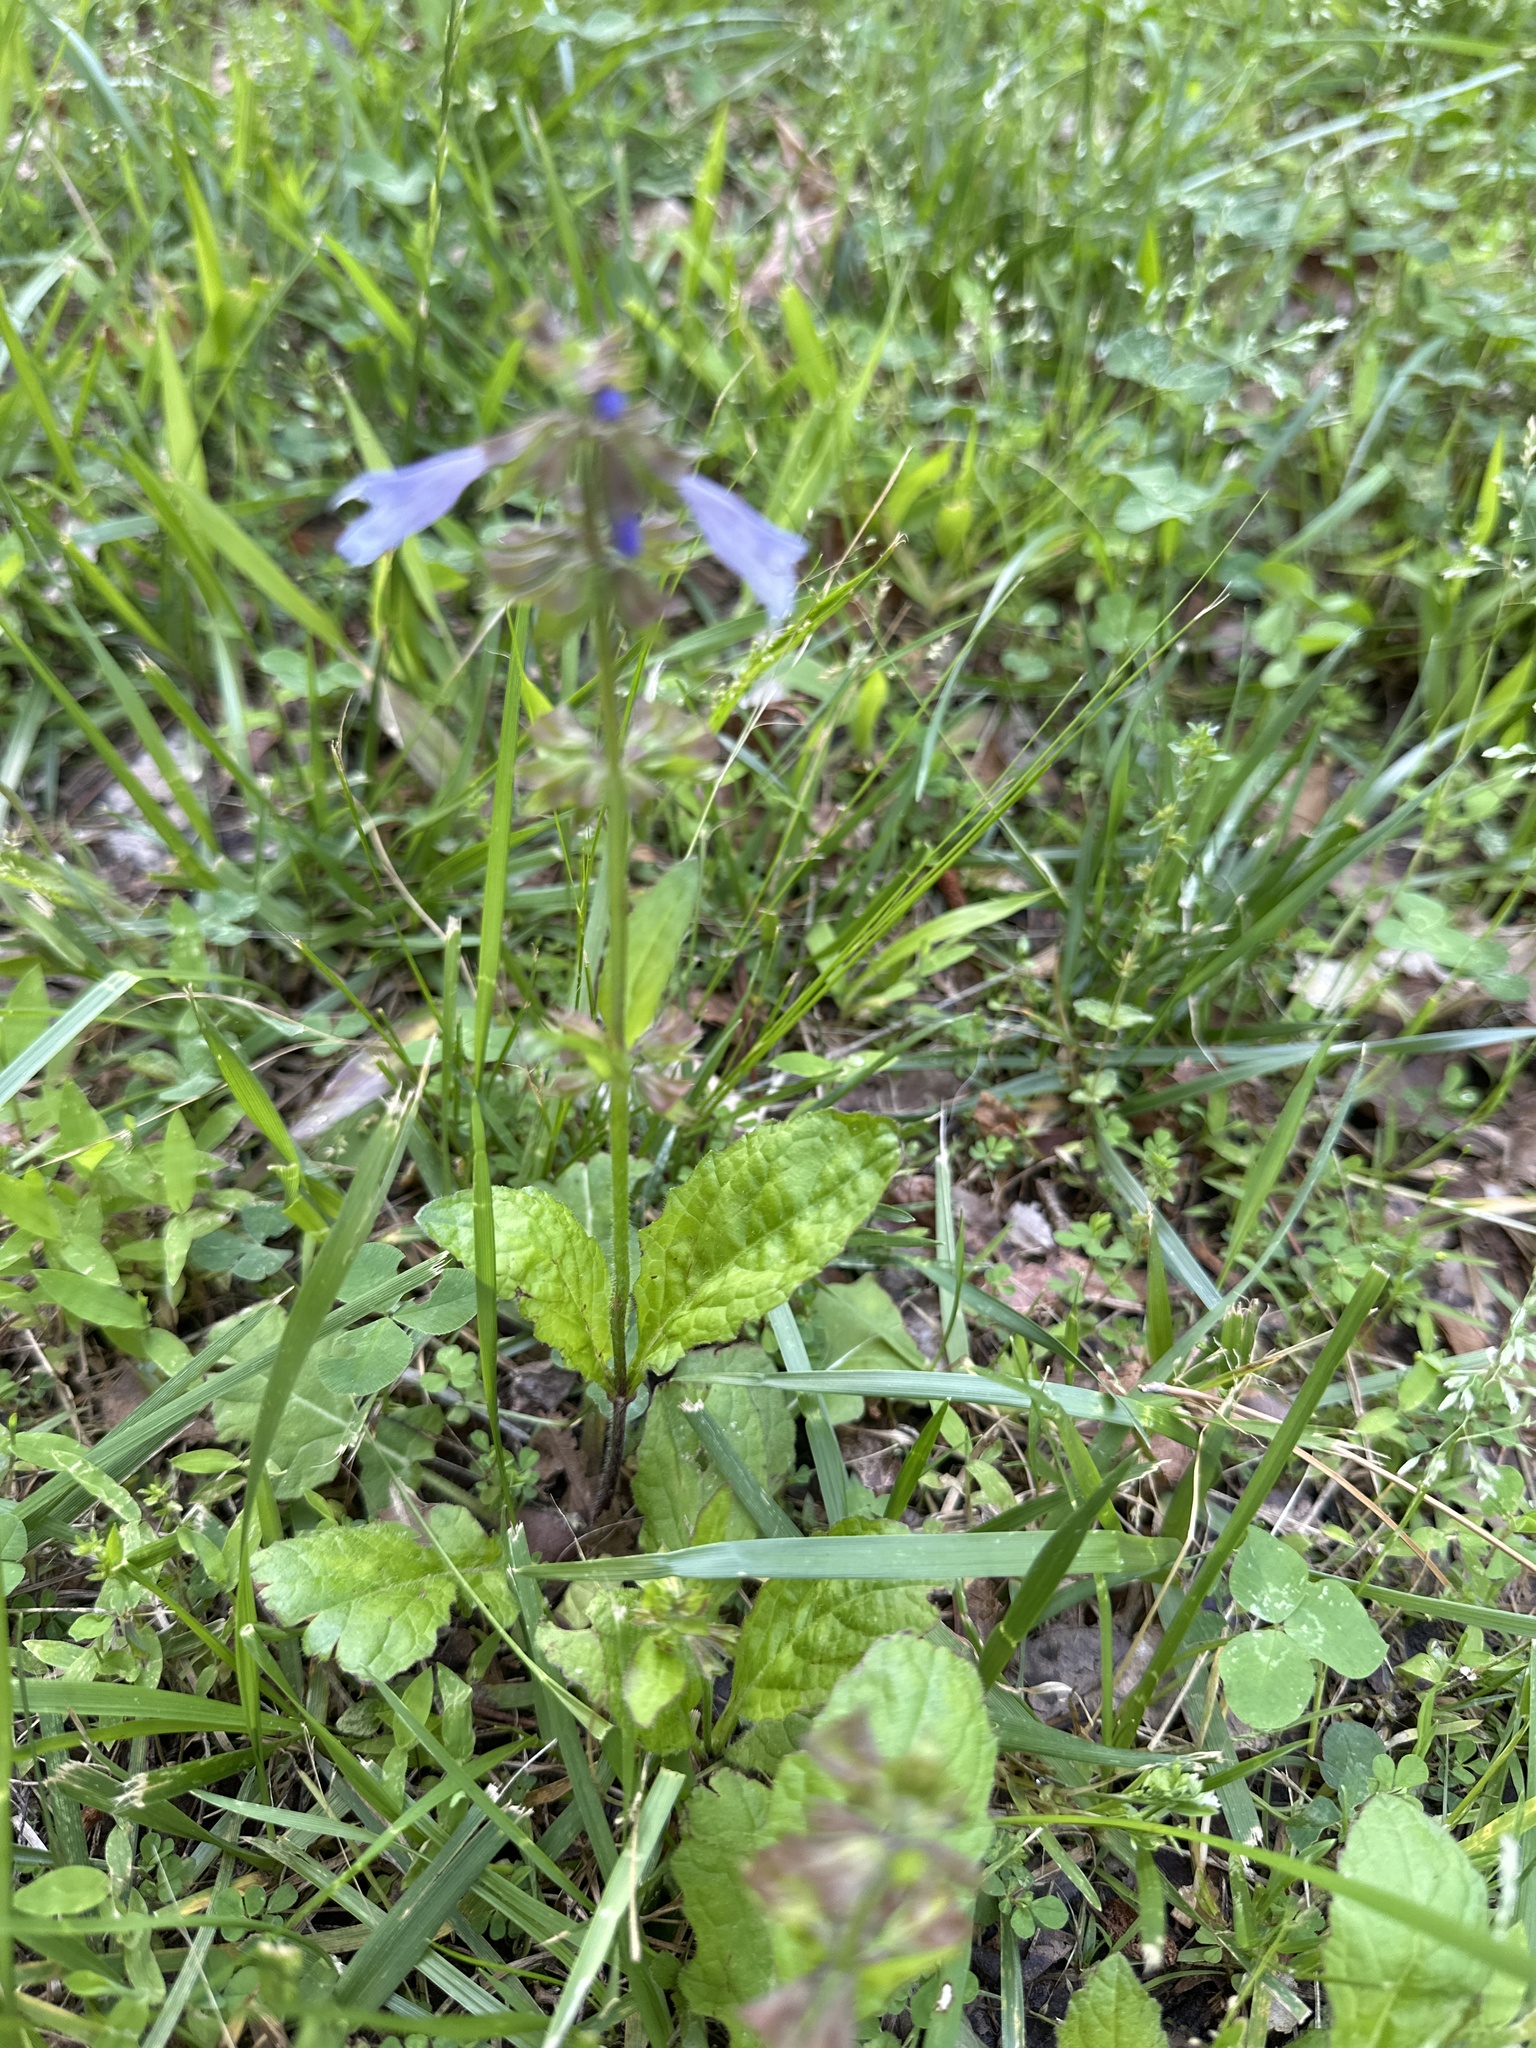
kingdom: Plantae
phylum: Tracheophyta
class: Magnoliopsida
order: Lamiales
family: Lamiaceae
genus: Salvia
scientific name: Salvia lyrata
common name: Cancerweed
